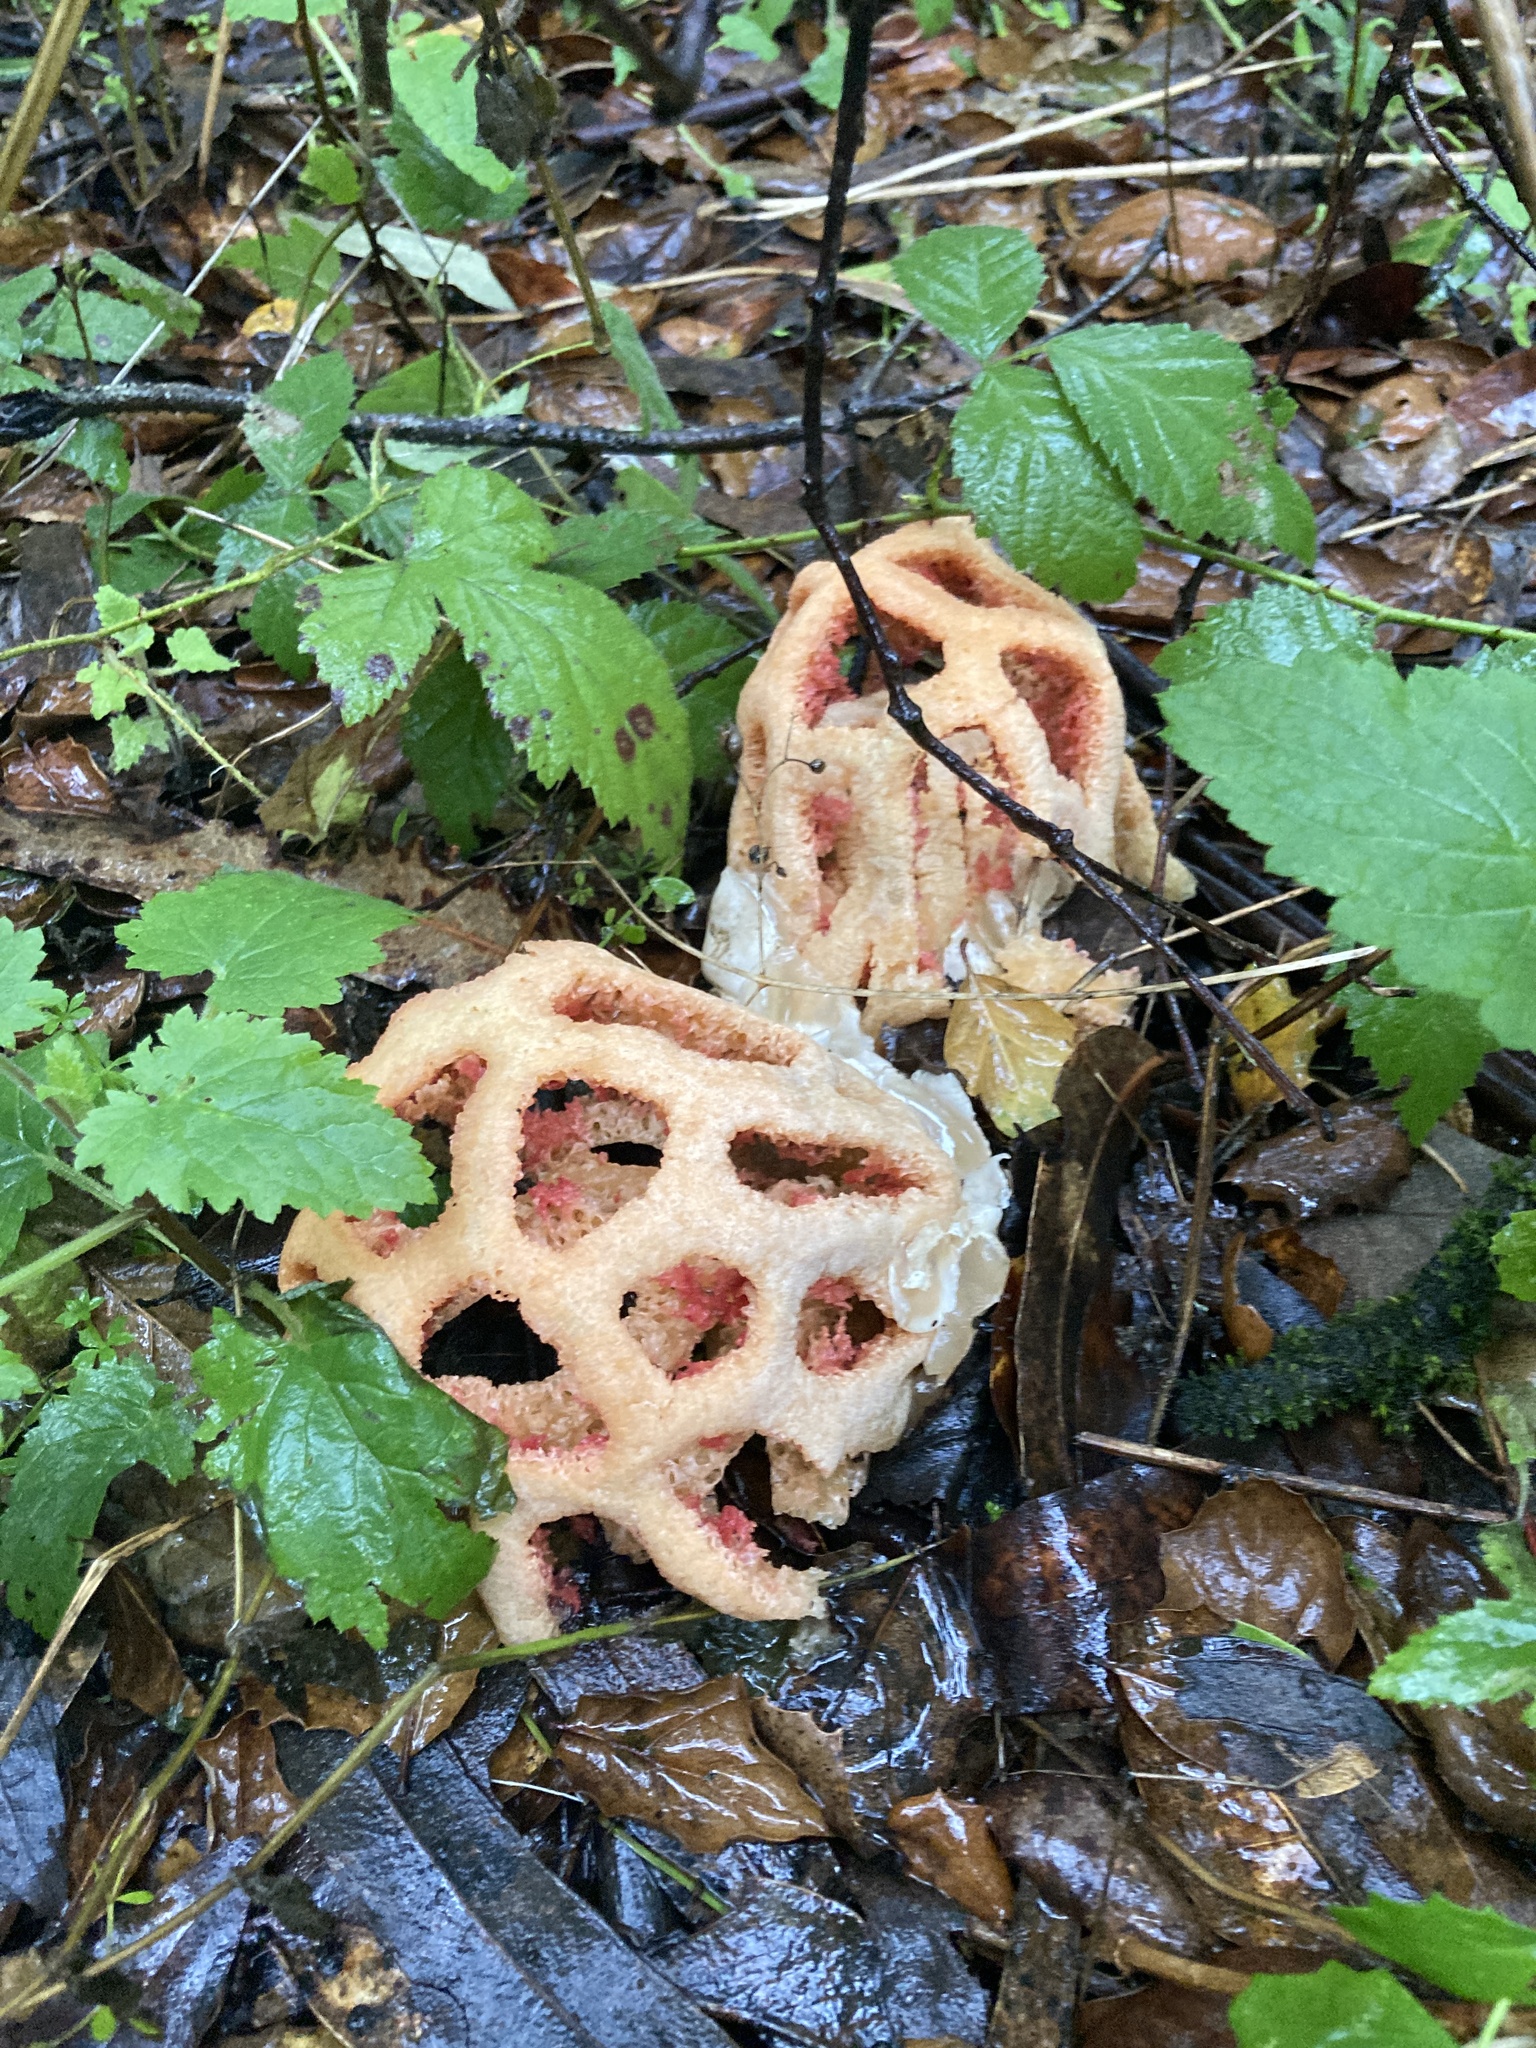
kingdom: Fungi
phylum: Basidiomycota
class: Agaricomycetes
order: Phallales
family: Phallaceae
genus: Clathrus
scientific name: Clathrus ruber
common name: Red cage
